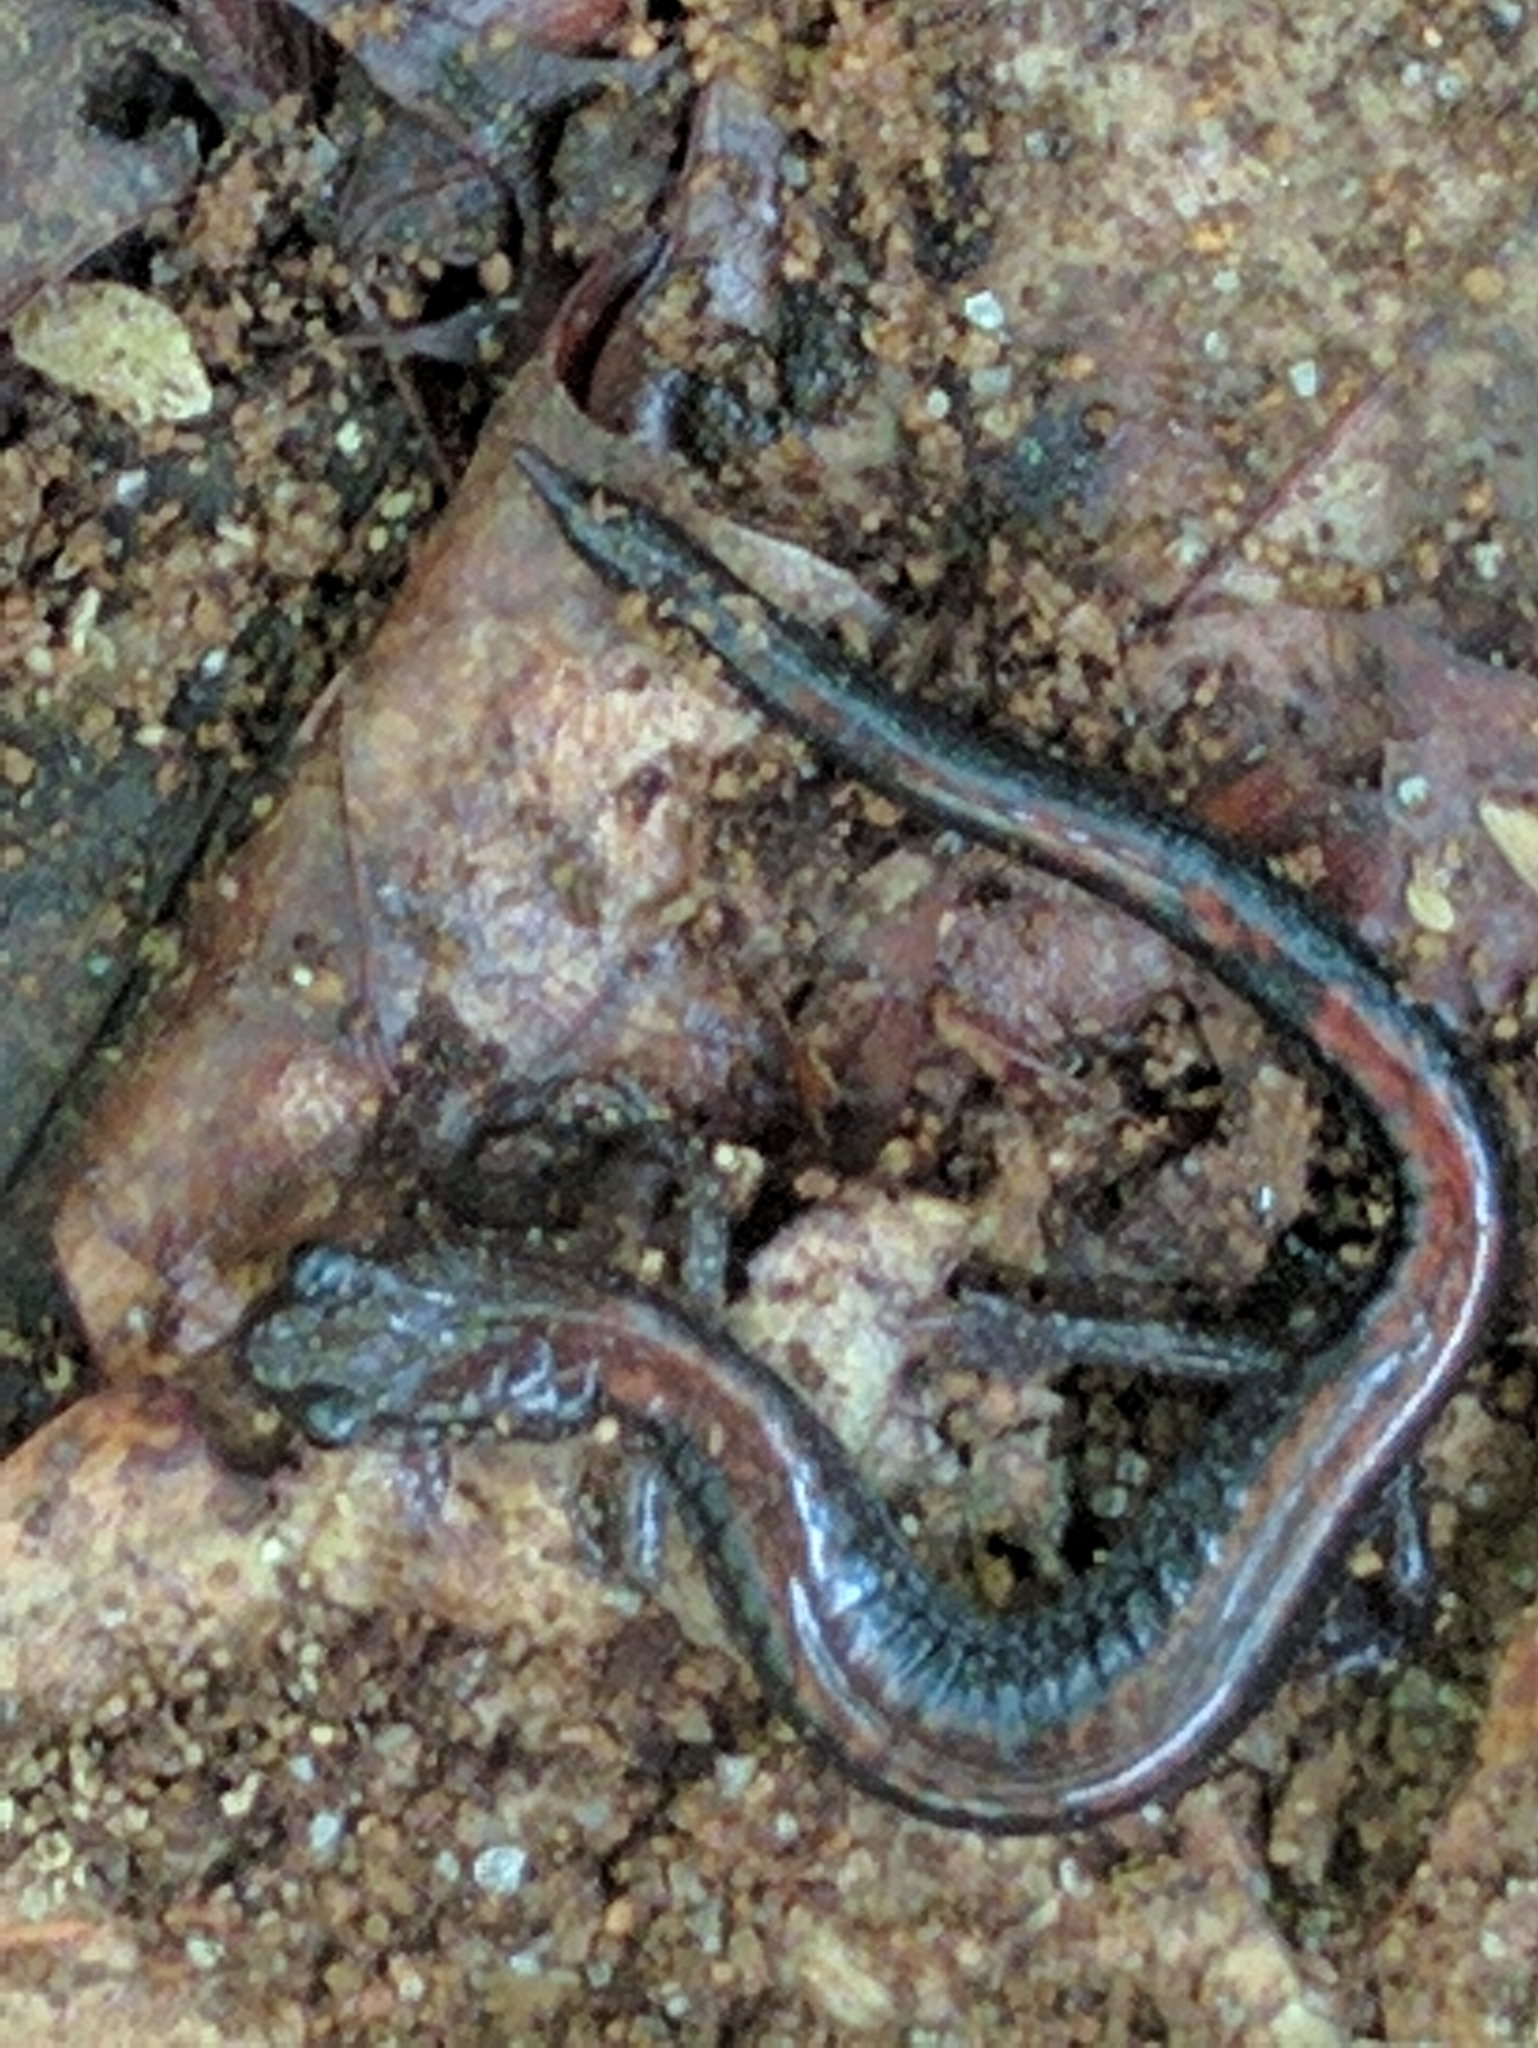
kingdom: Animalia
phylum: Chordata
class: Amphibia
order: Caudata
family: Plethodontidae
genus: Plethodon
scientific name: Plethodon cinereus
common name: Redback salamander
